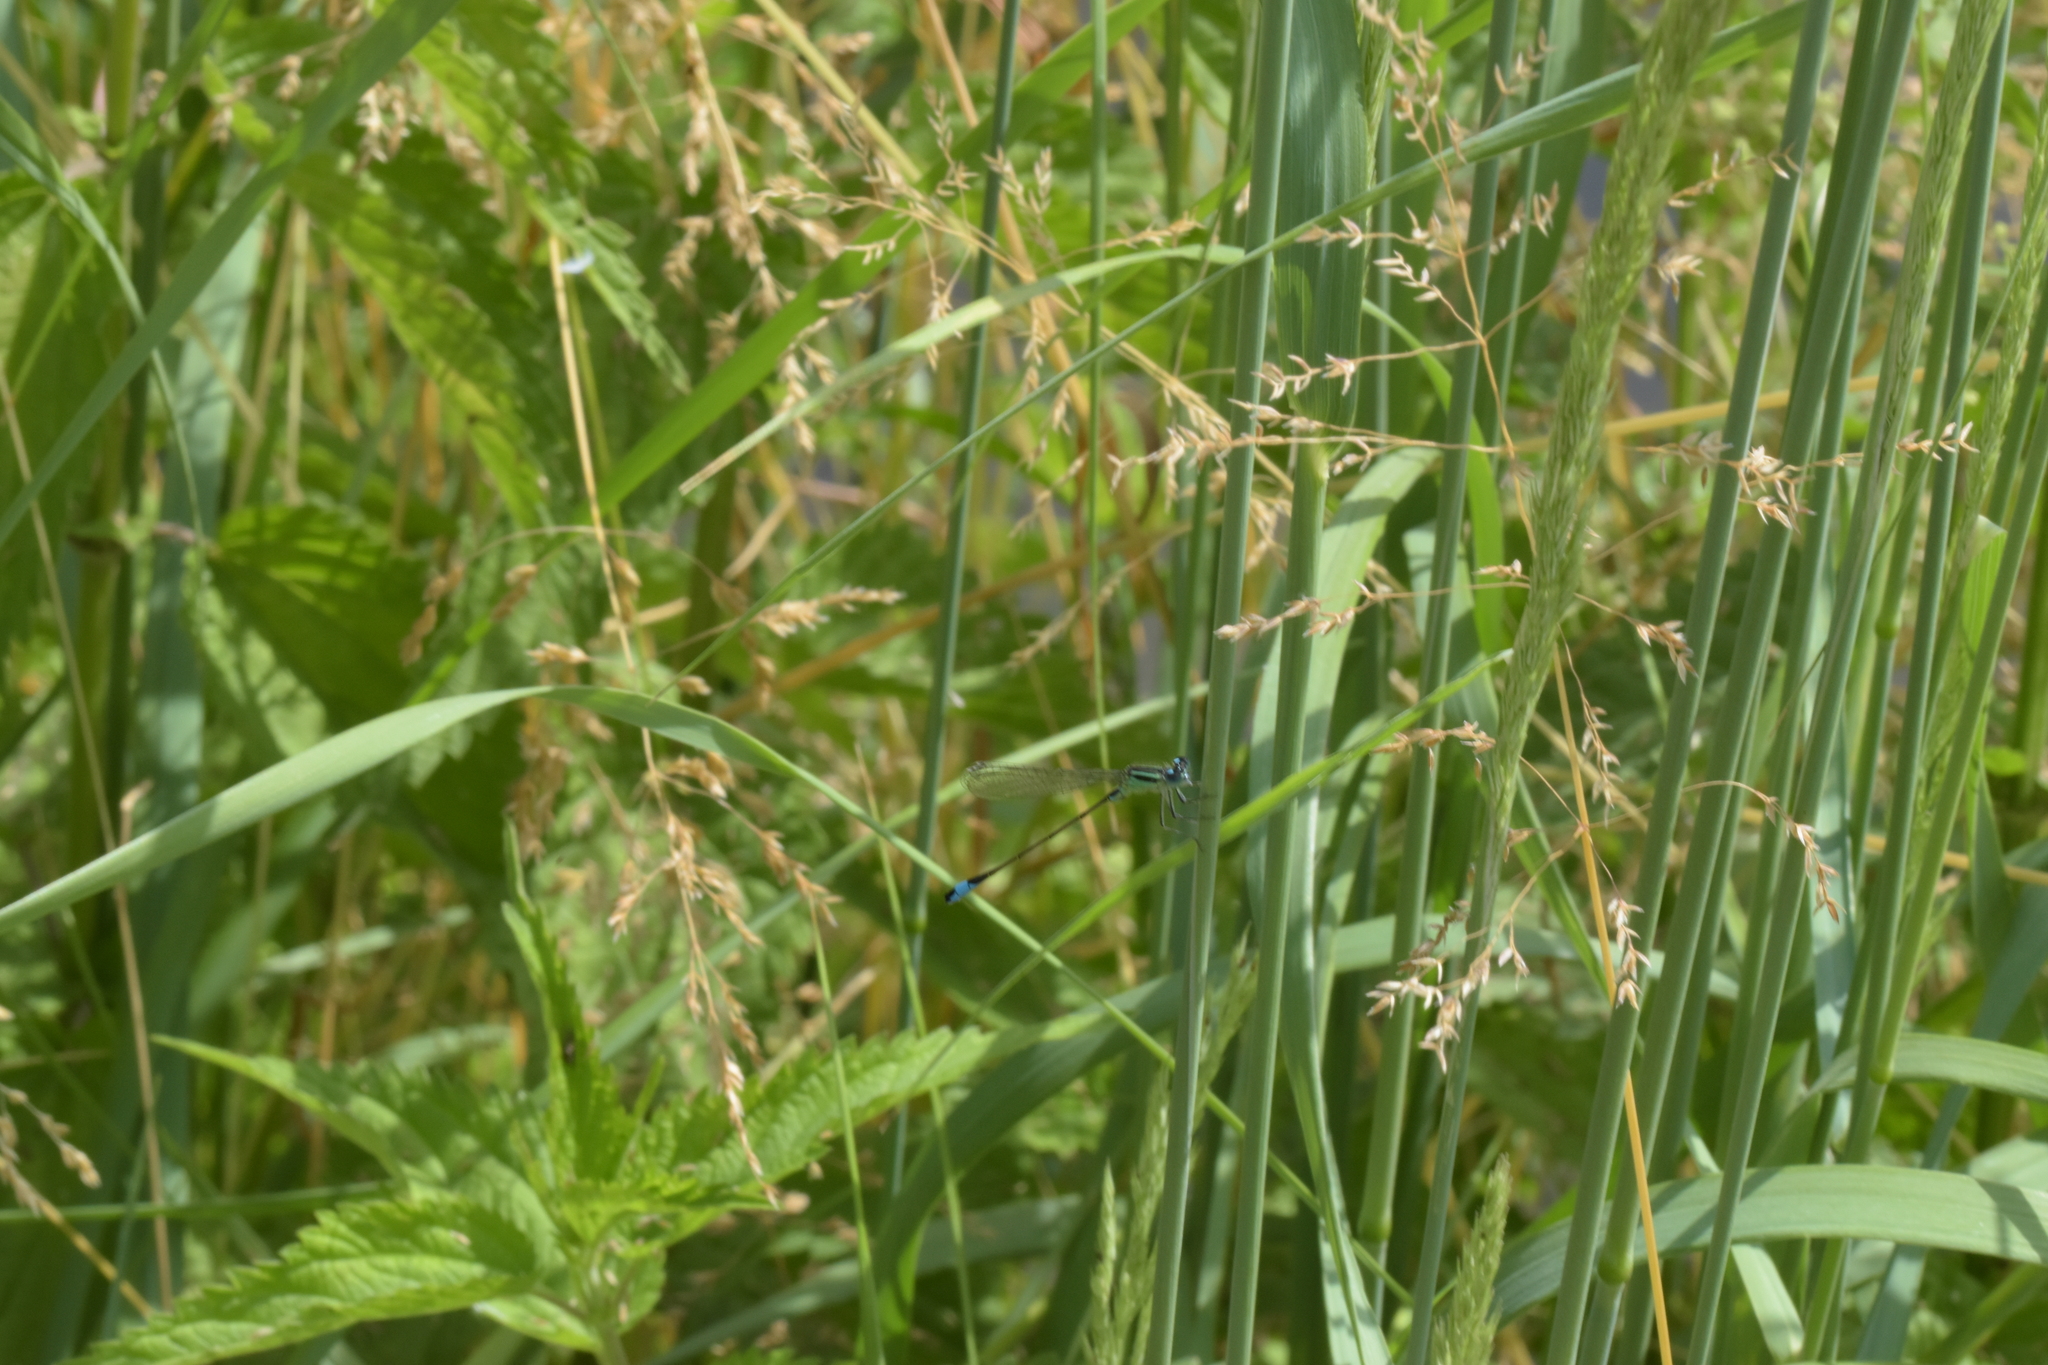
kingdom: Animalia
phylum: Arthropoda
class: Insecta
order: Odonata
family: Coenagrionidae
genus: Ischnura
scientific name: Ischnura elegans
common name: Blue-tailed damselfly
